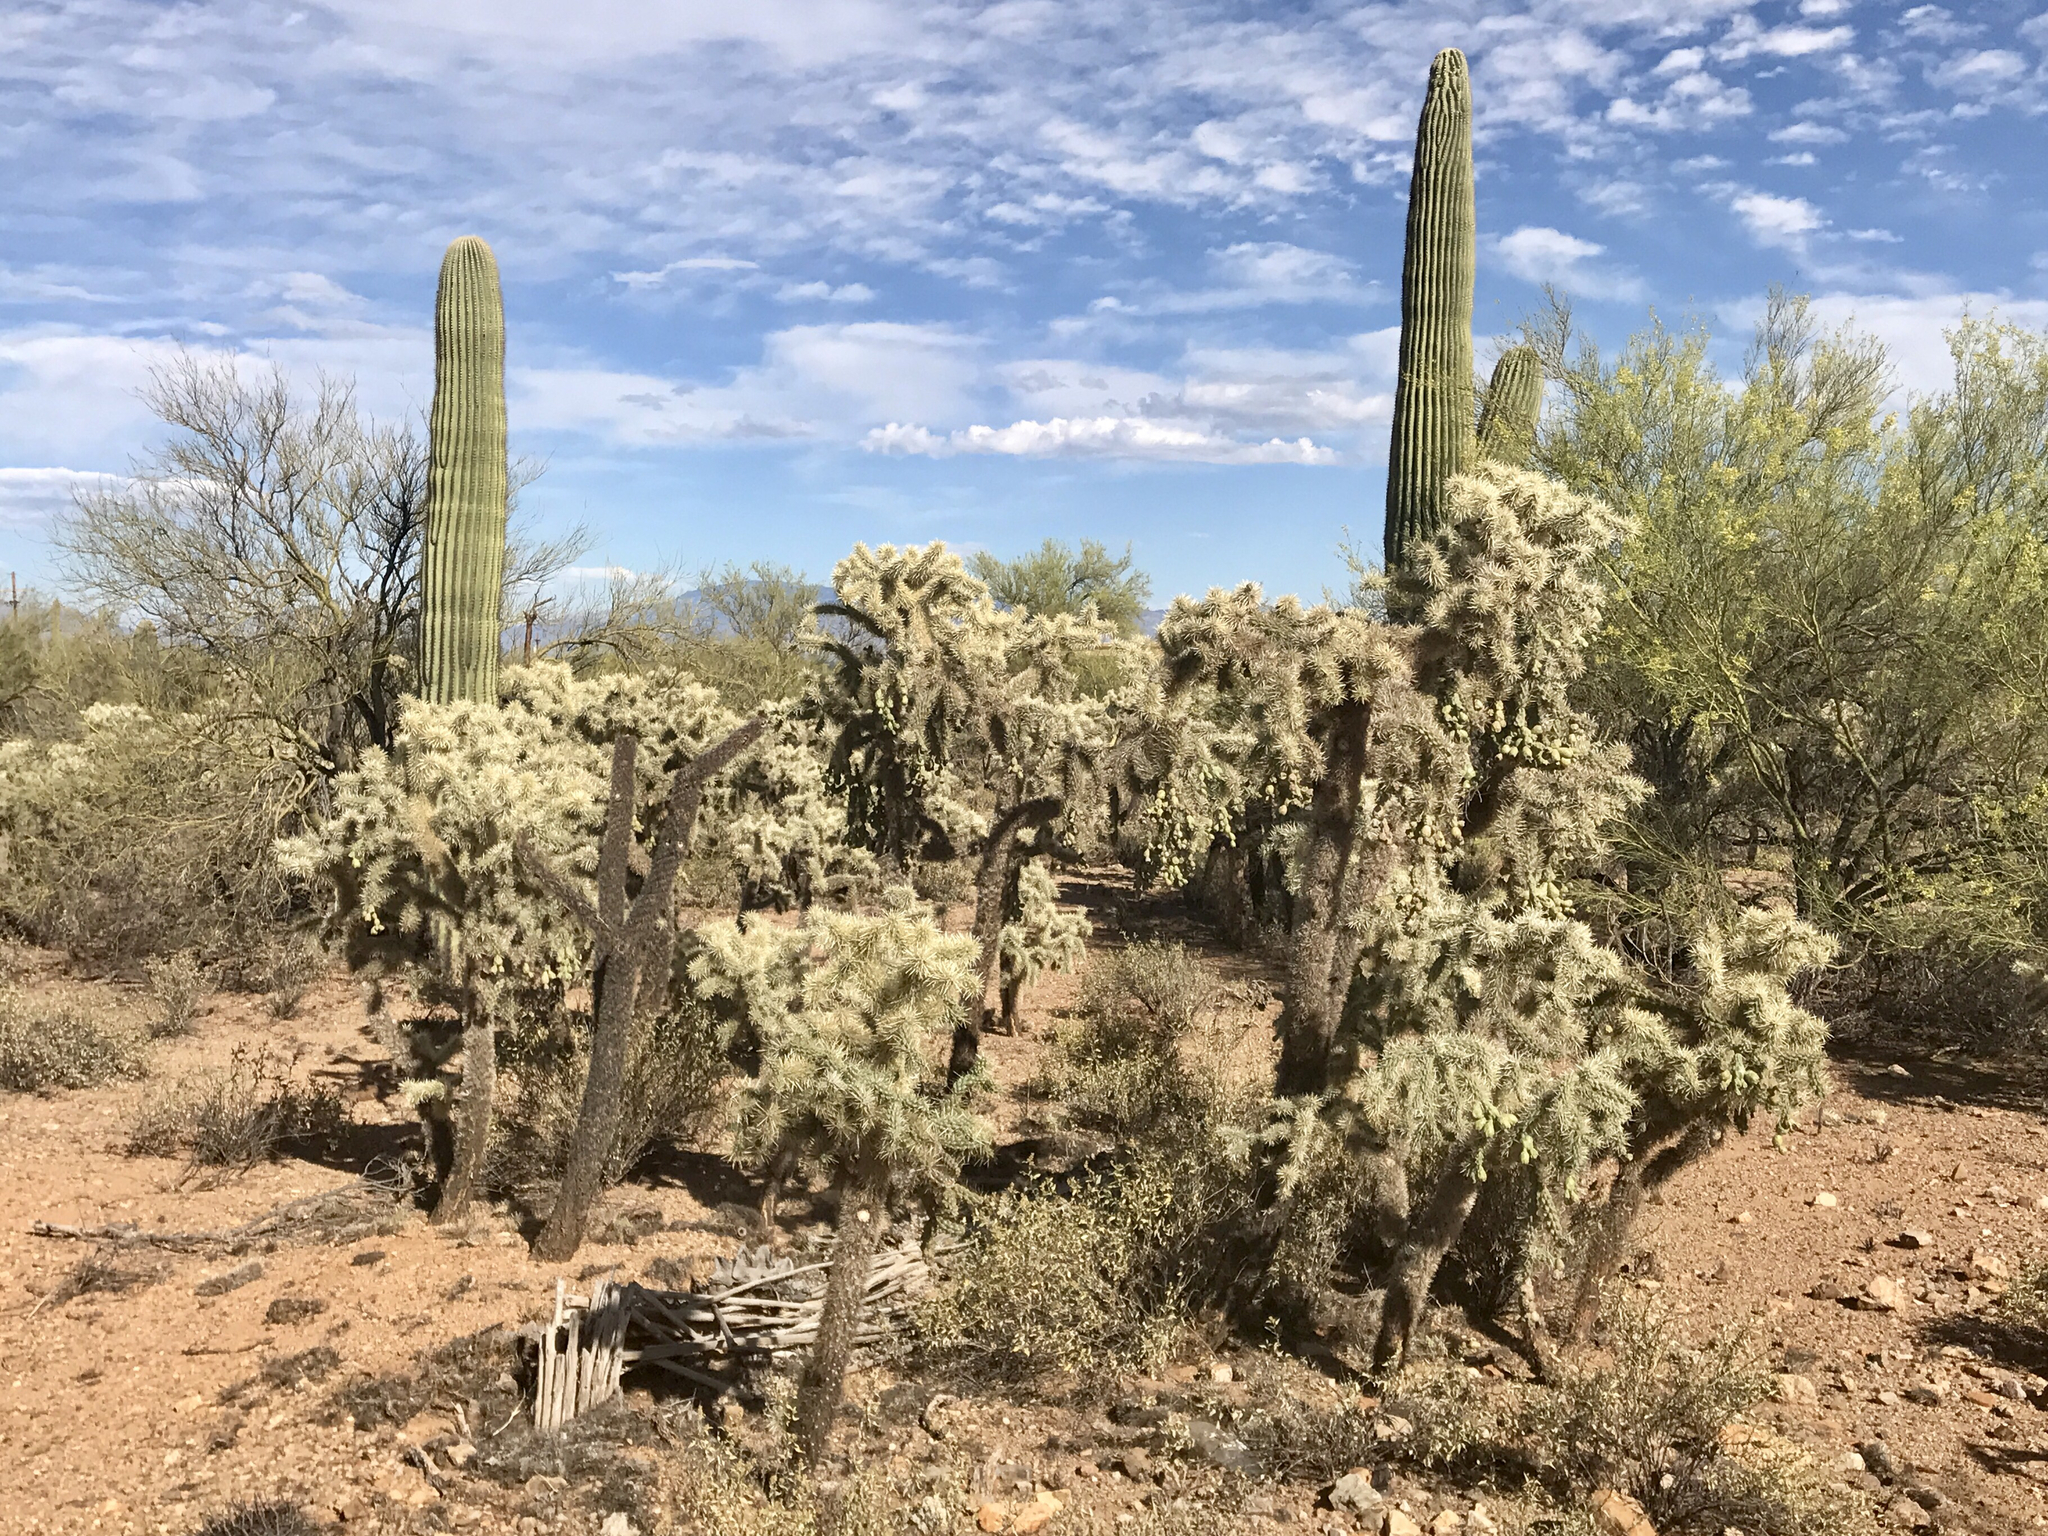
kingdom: Plantae
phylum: Tracheophyta
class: Magnoliopsida
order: Caryophyllales
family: Cactaceae
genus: Cylindropuntia
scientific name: Cylindropuntia fulgida
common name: Jumping cholla
